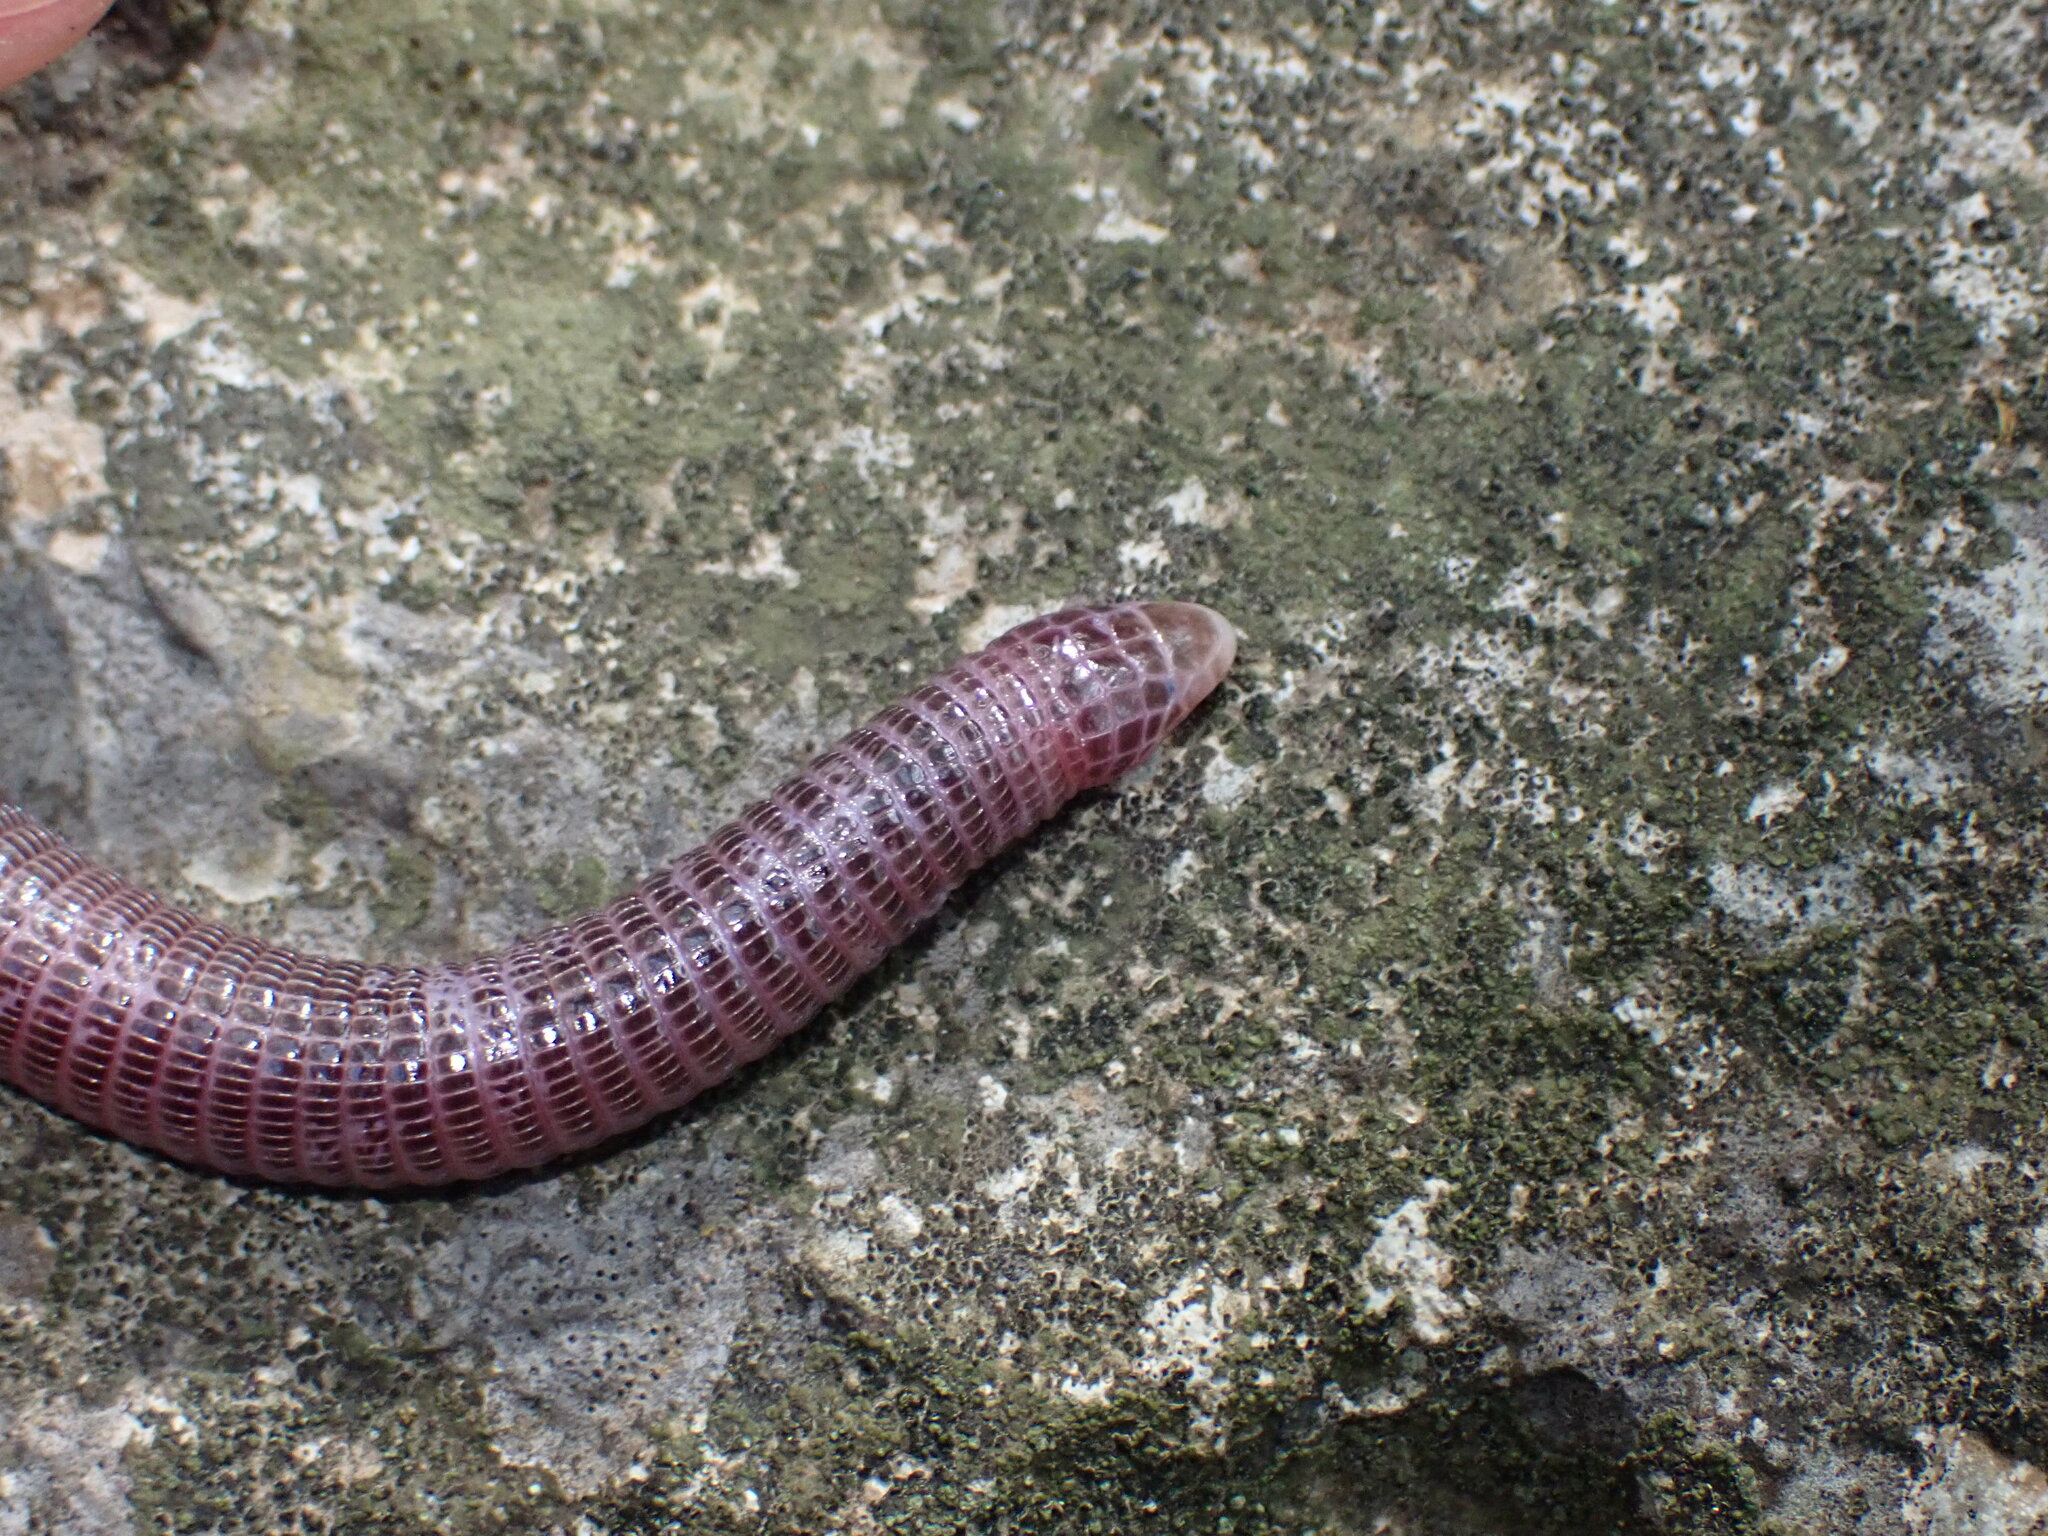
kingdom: Animalia
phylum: Chordata
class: Squamata
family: Blanidae
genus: Blanus
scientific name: Blanus aporus
